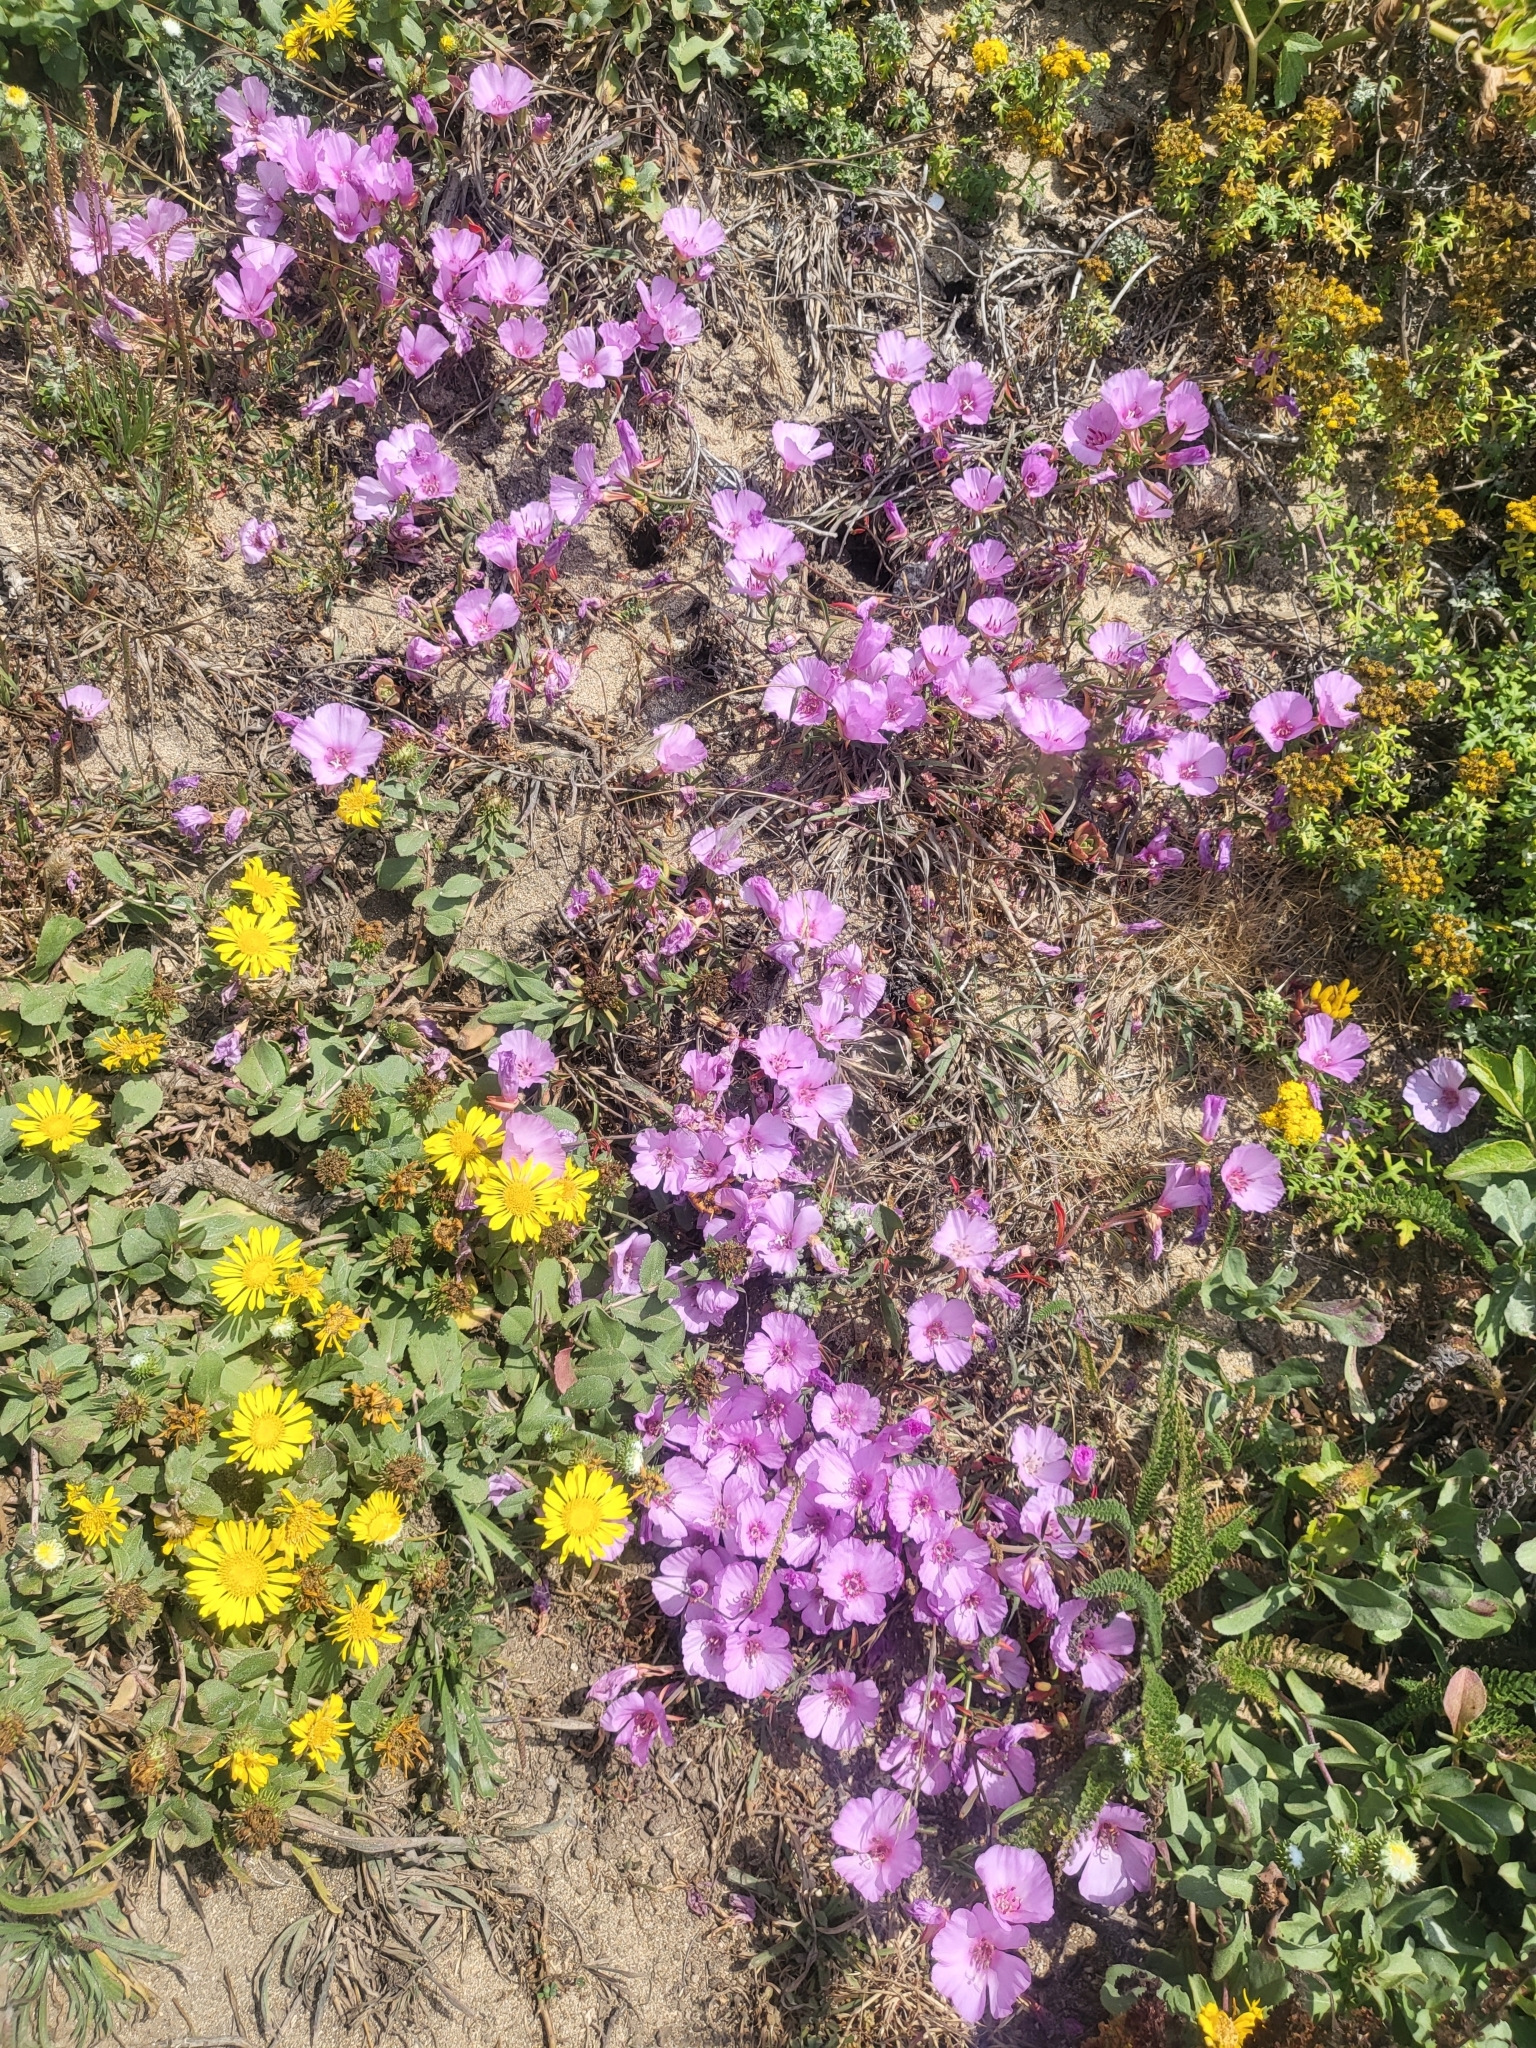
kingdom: Plantae
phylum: Tracheophyta
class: Magnoliopsida
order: Myrtales
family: Onagraceae
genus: Clarkia
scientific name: Clarkia rubicunda
